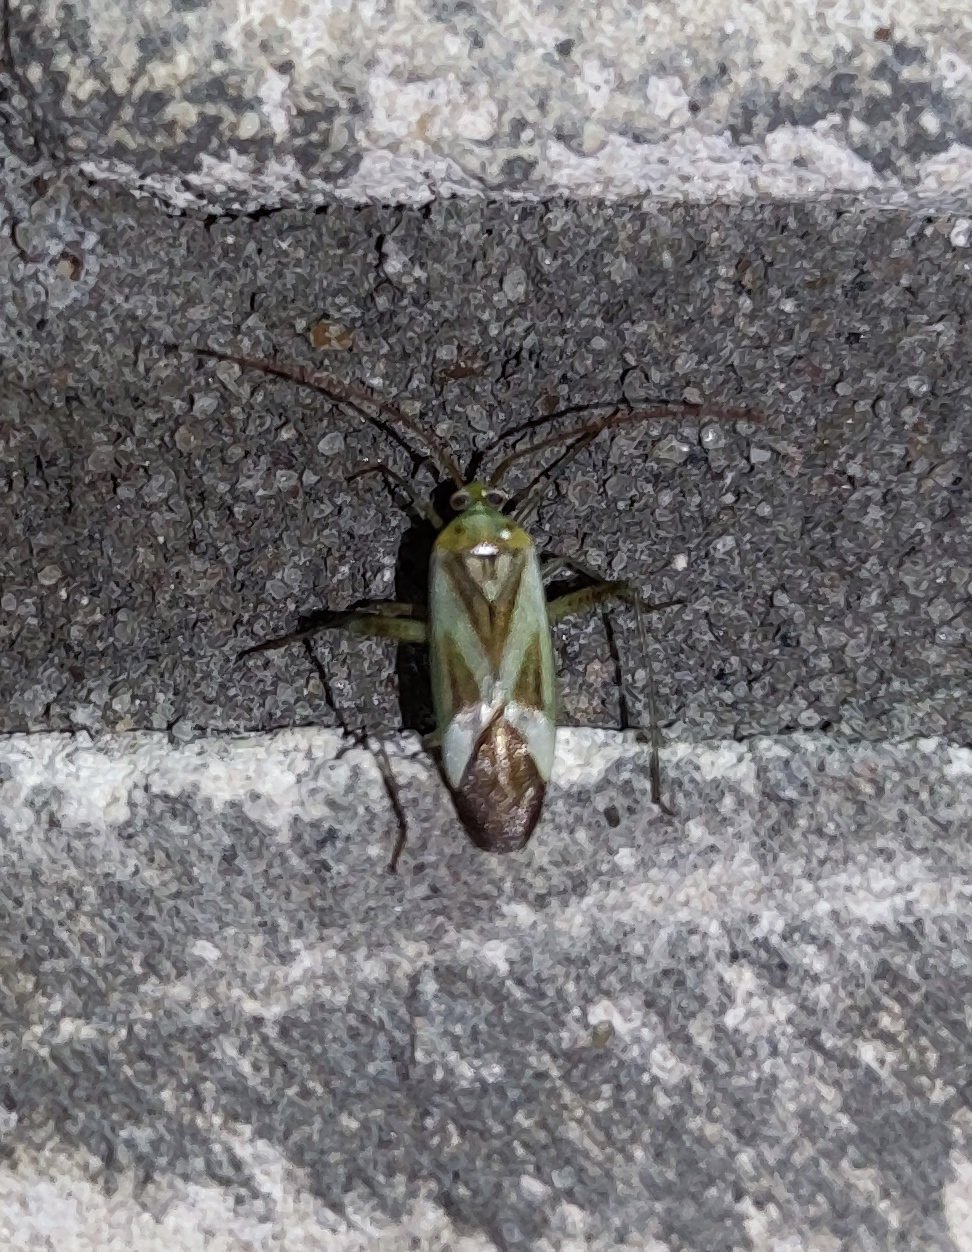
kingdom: Animalia
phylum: Arthropoda
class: Insecta
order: Hemiptera
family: Miridae
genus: Adelphocoris
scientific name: Adelphocoris lineolatus
